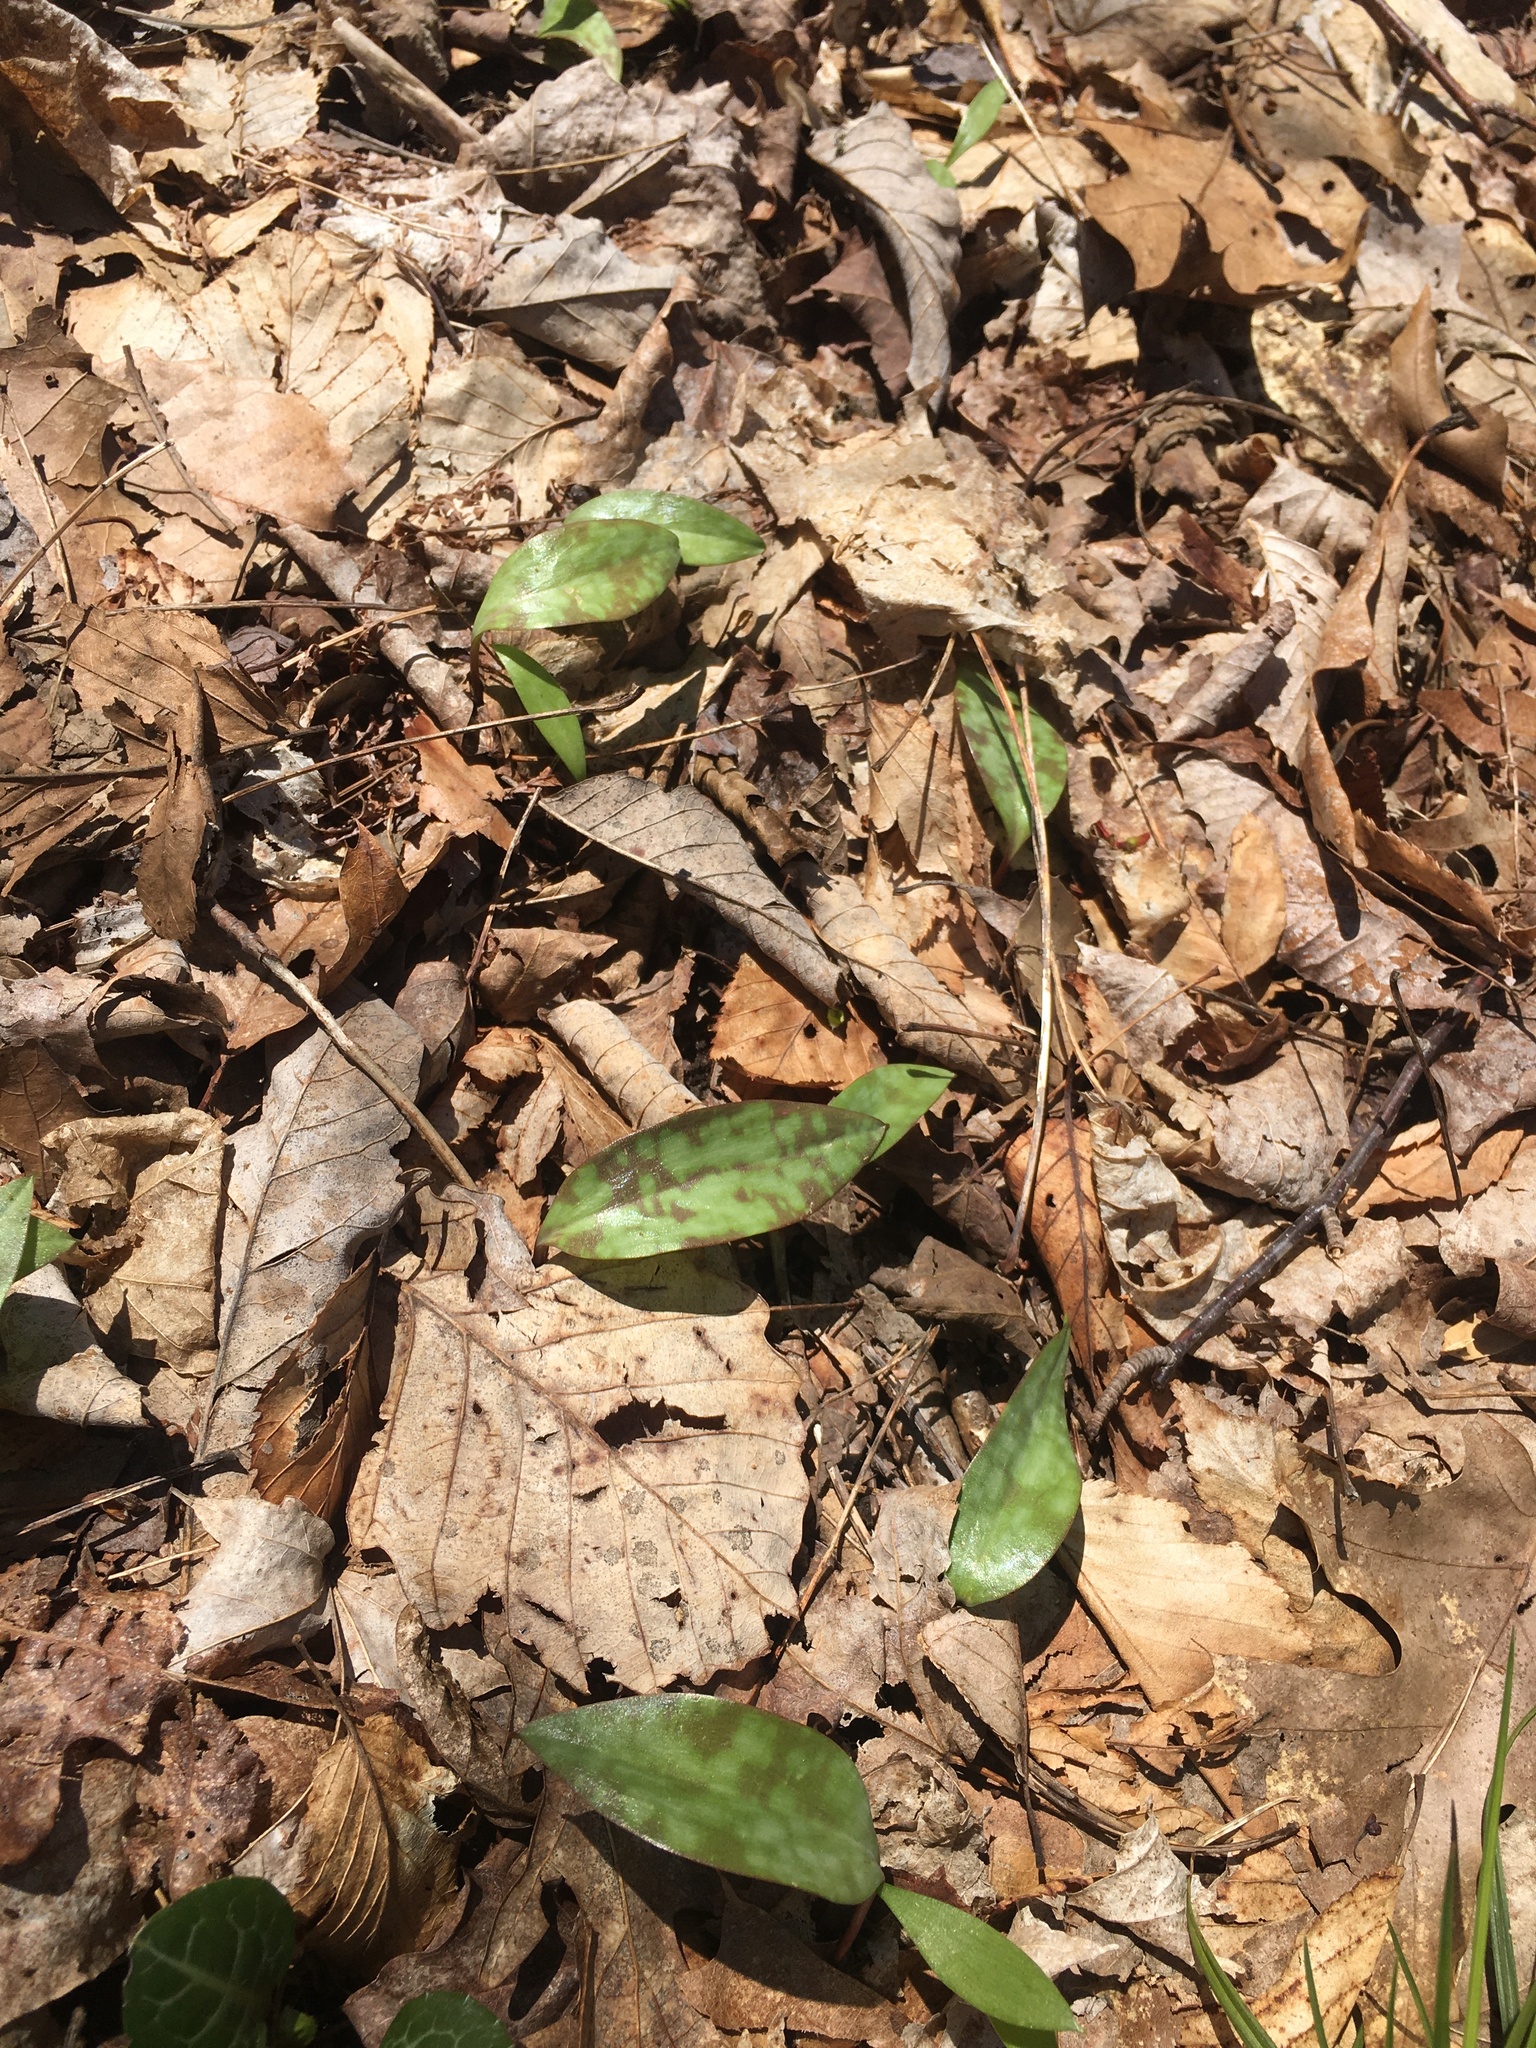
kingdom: Plantae
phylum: Tracheophyta
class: Liliopsida
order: Liliales
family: Liliaceae
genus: Erythronium
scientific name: Erythronium americanum
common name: Yellow adder's-tongue
